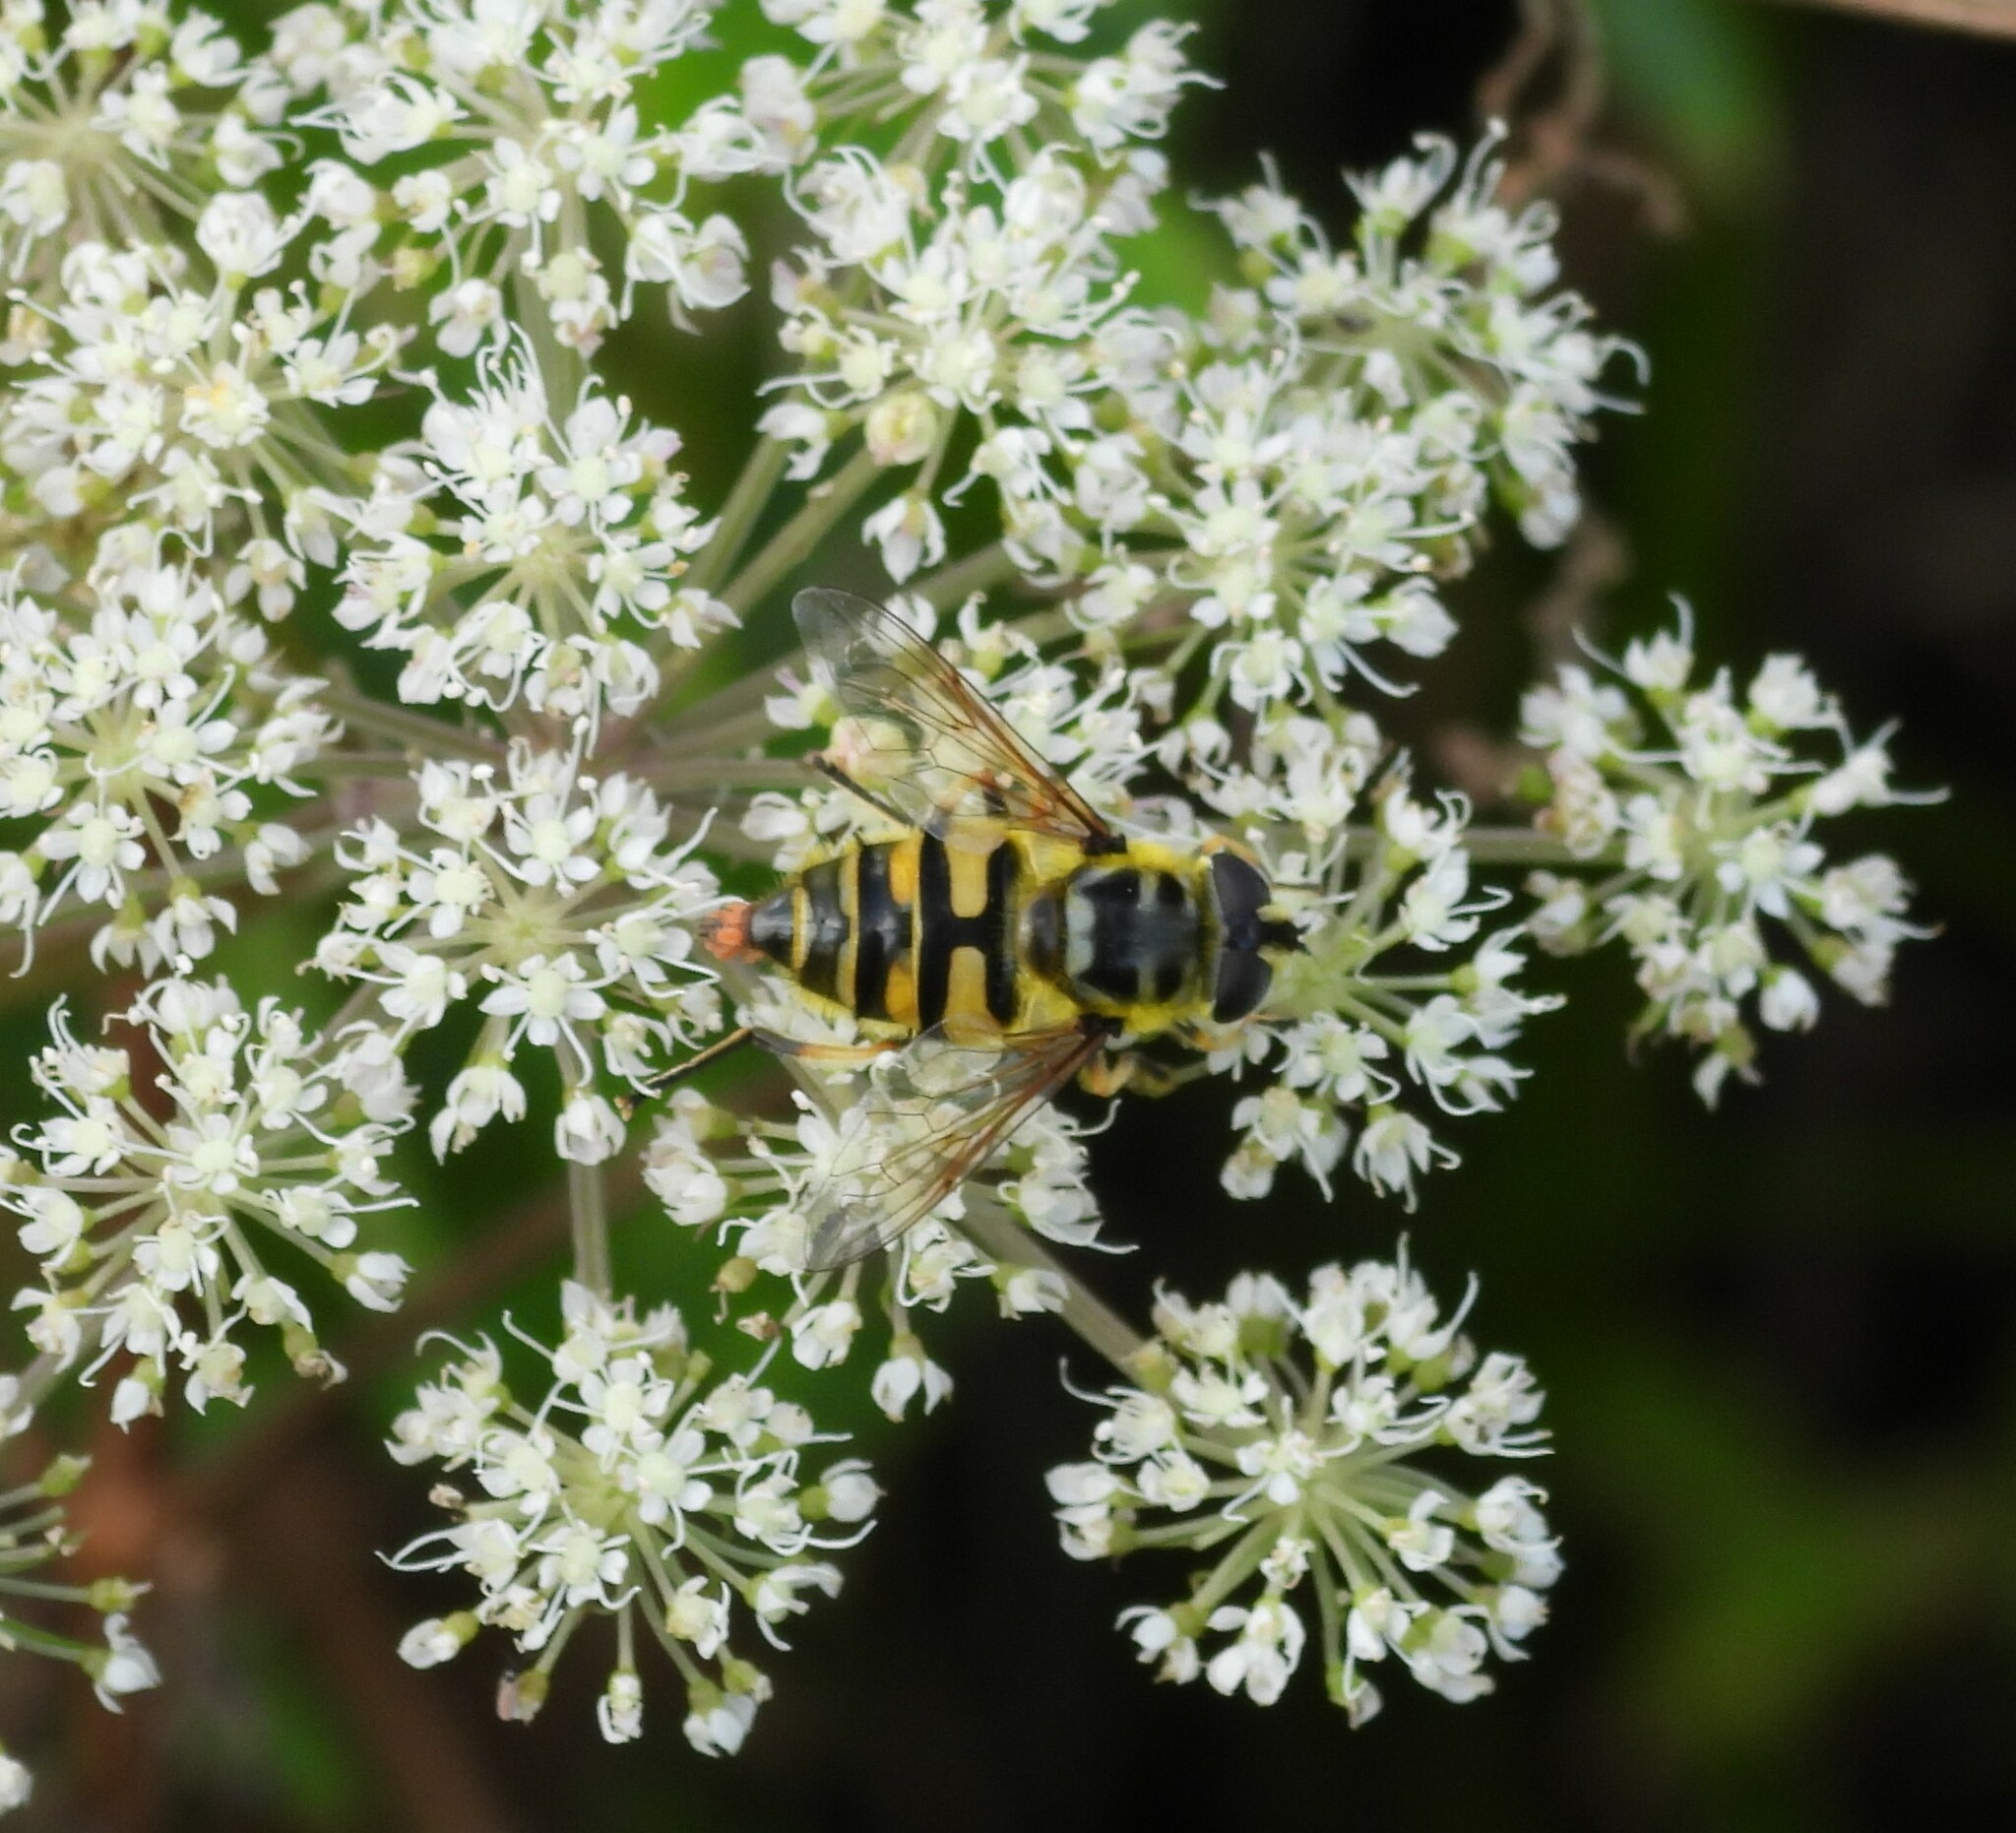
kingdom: Animalia
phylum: Arthropoda
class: Insecta
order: Diptera
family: Syrphidae
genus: Myathropa
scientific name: Myathropa florea
